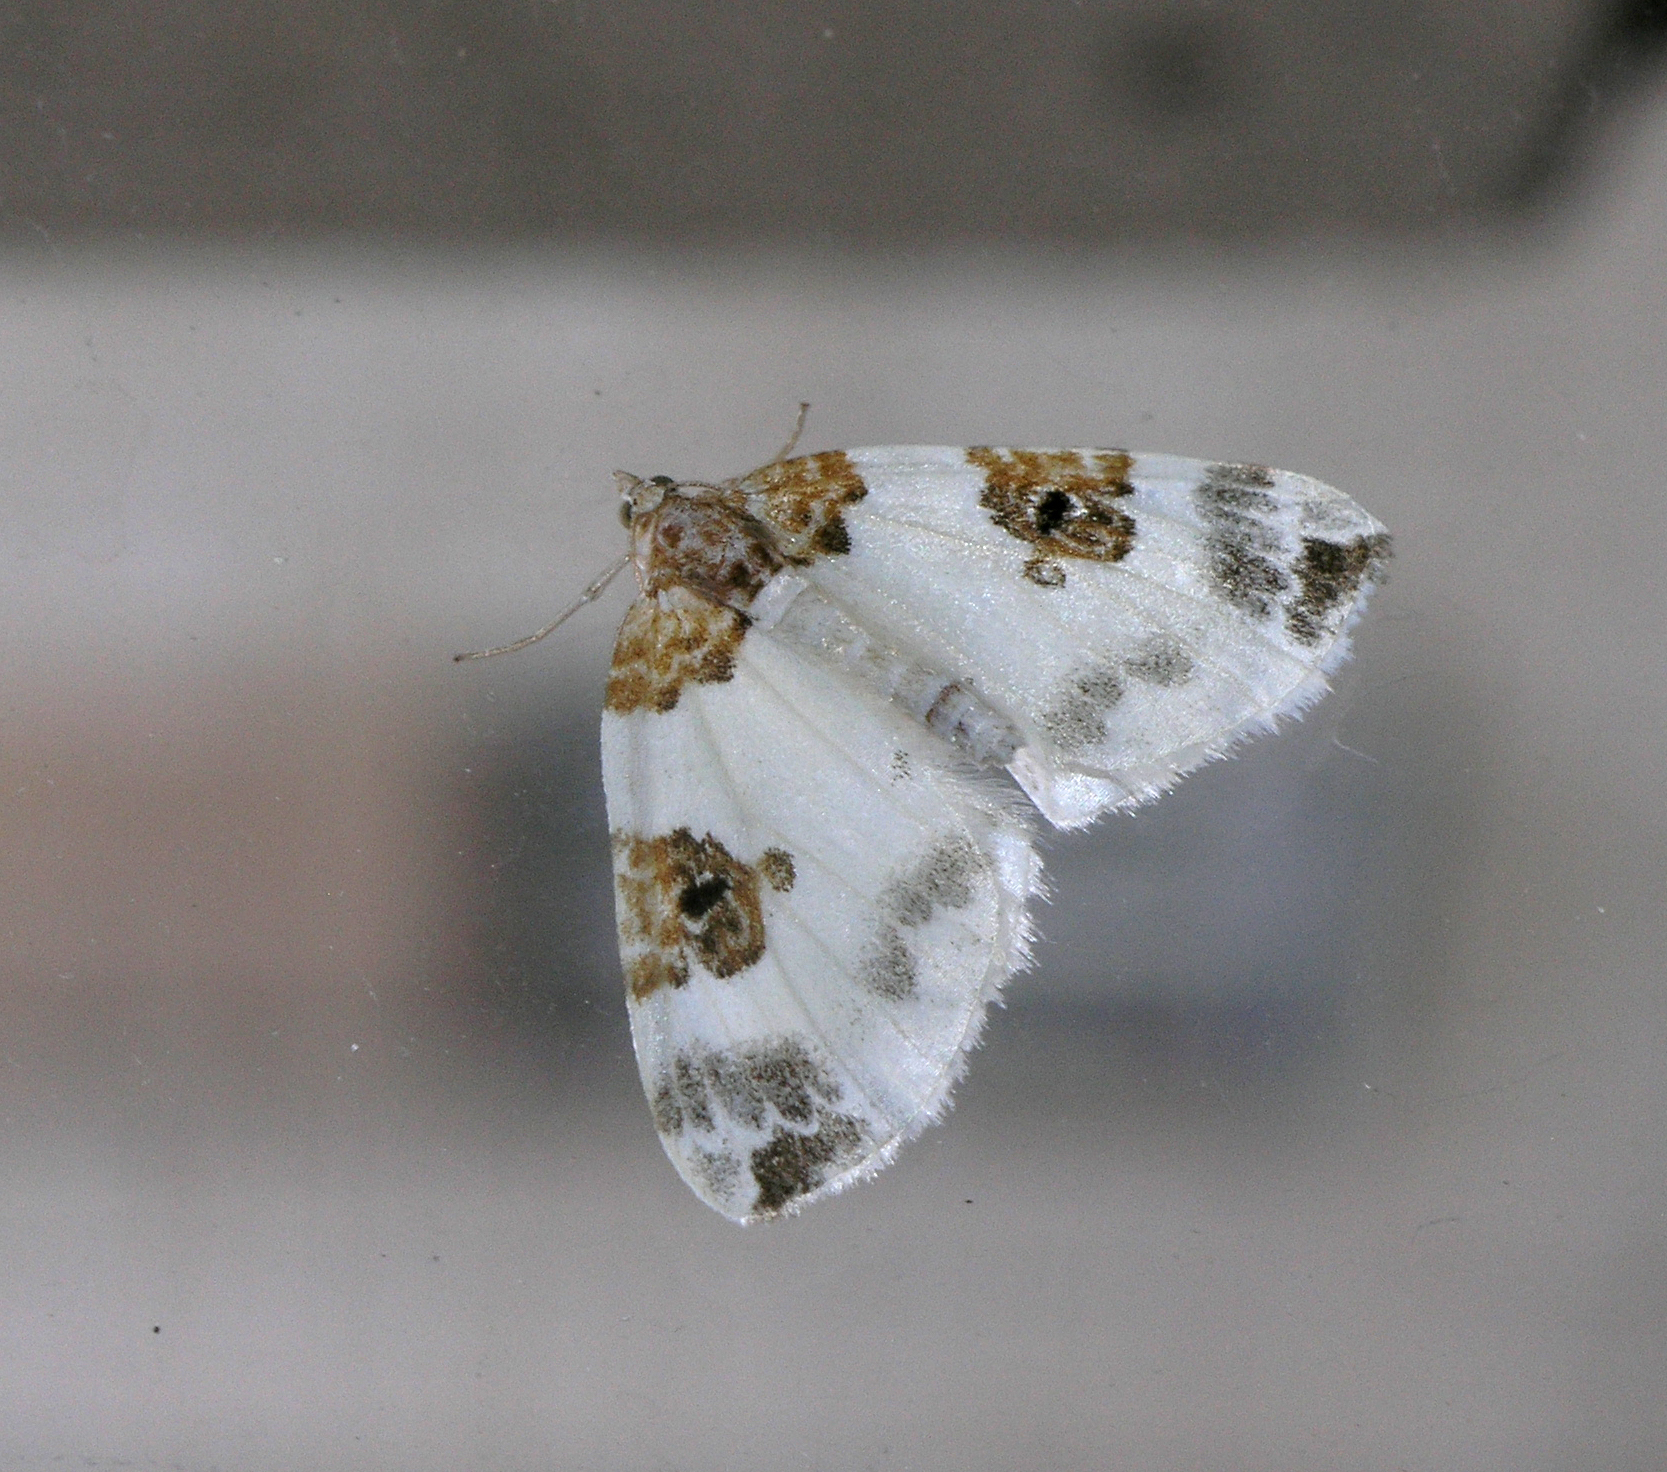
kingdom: Animalia
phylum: Arthropoda
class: Insecta
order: Lepidoptera
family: Geometridae
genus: Plemyria
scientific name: Plemyria rubiginata
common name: Blue-bordered carpet
